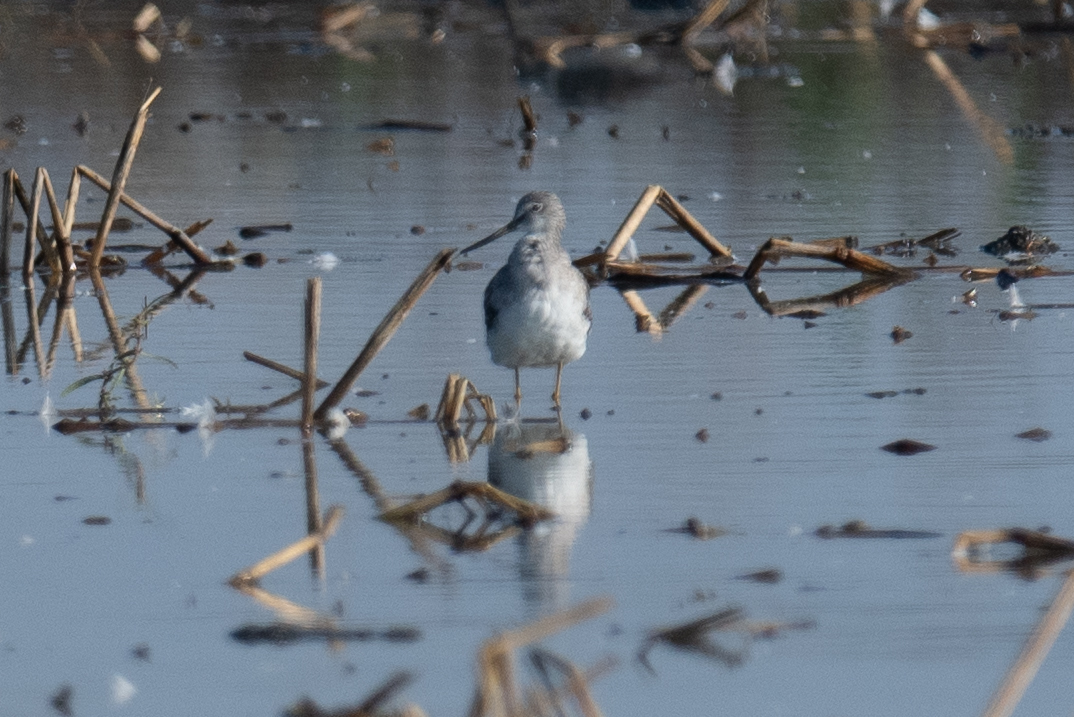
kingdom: Animalia
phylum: Chordata
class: Aves
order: Charadriiformes
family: Scolopacidae
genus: Tringa
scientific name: Tringa melanoleuca
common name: Greater yellowlegs
